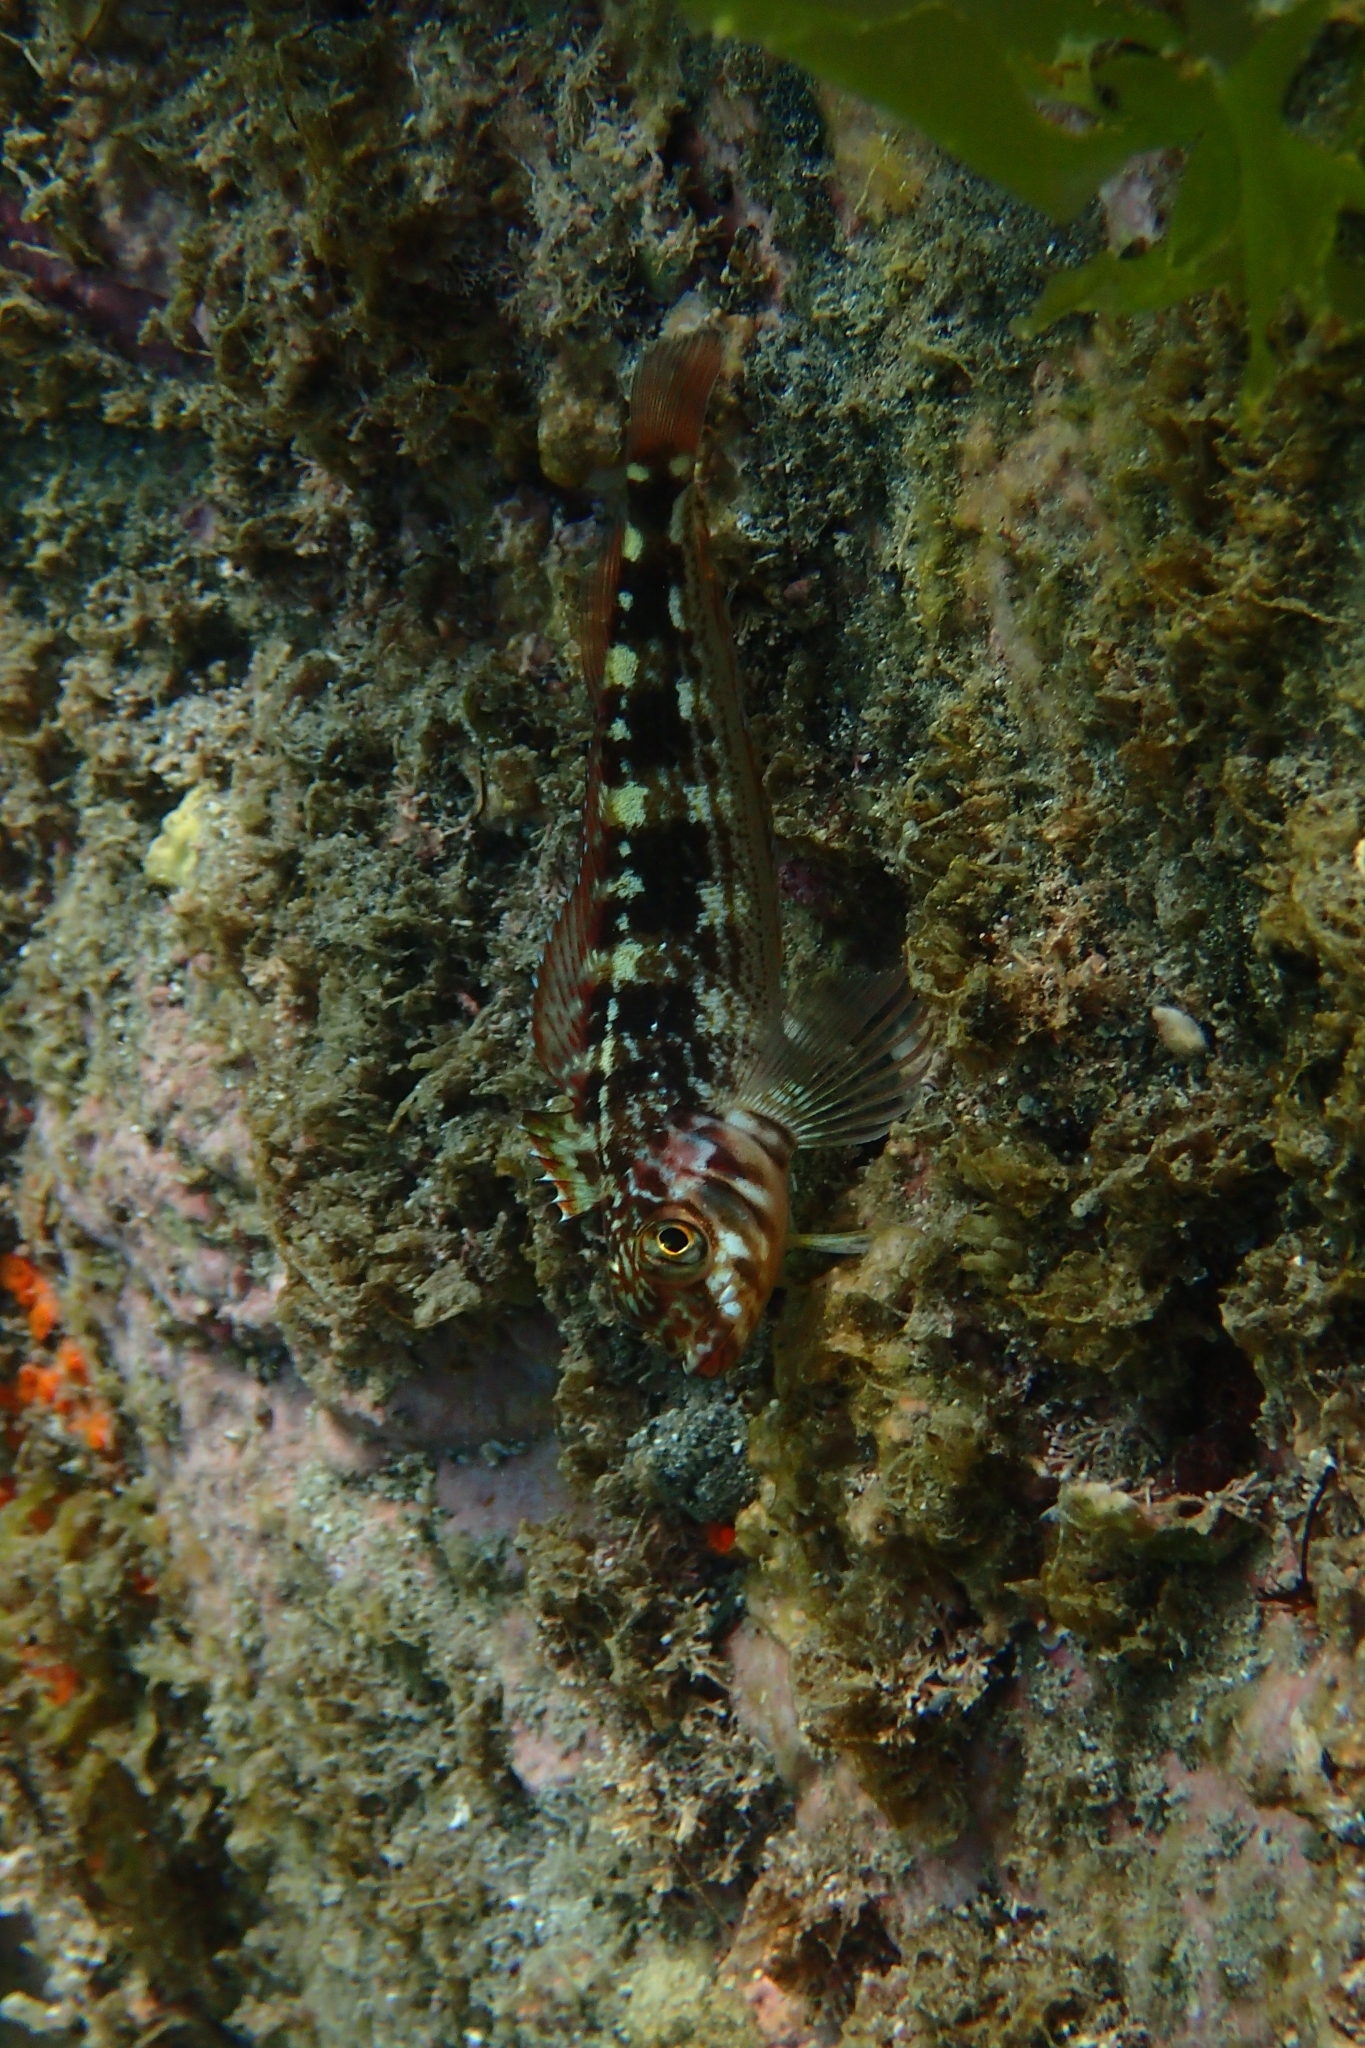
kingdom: Animalia
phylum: Chordata
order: Perciformes
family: Tripterygiidae
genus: Forsterygion
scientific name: Forsterygion varium
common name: Variable triplefin
